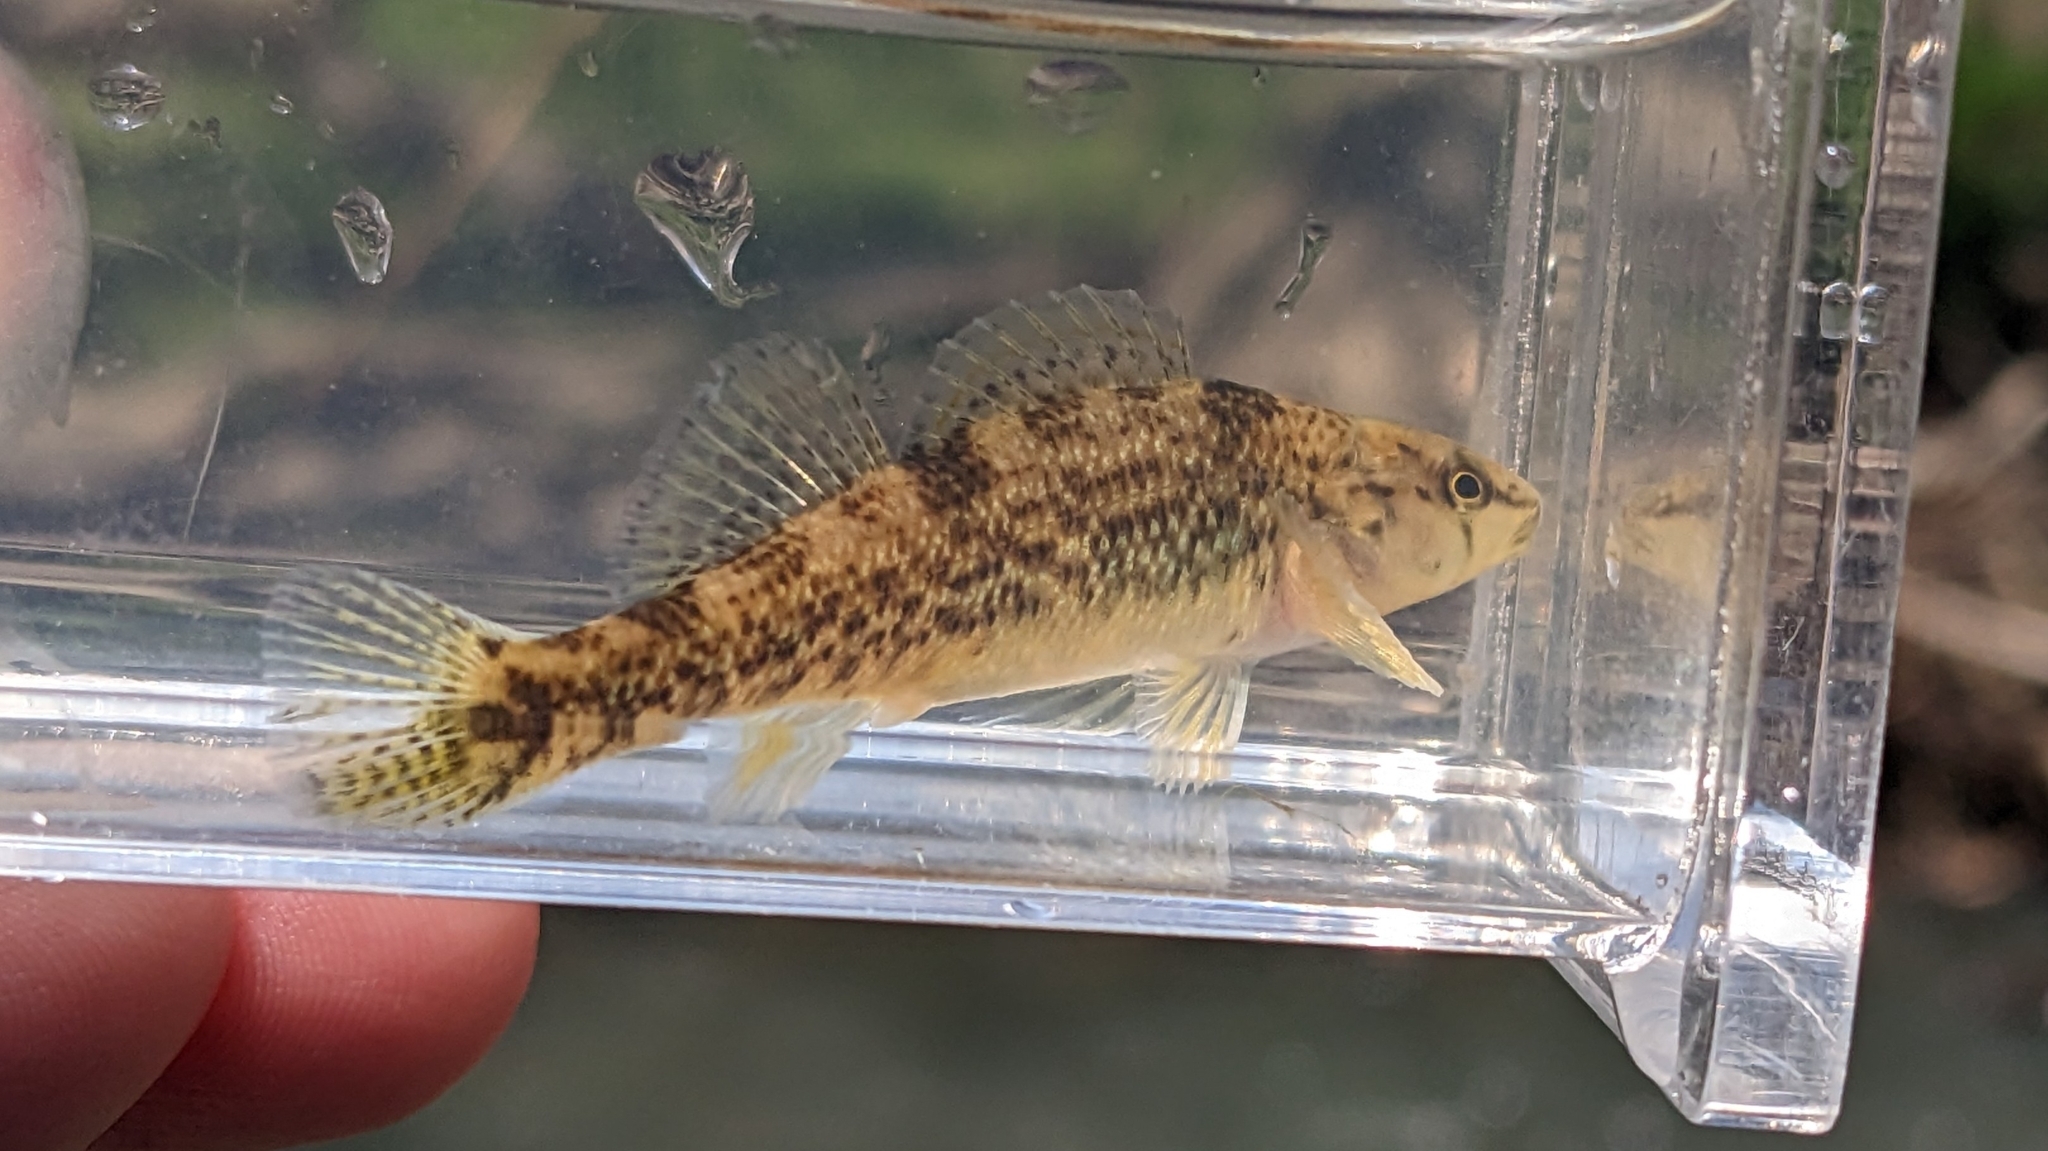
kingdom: Animalia
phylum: Chordata
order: Perciformes
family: Percidae
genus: Etheostoma
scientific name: Etheostoma caeruleum
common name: Rainbow darter
